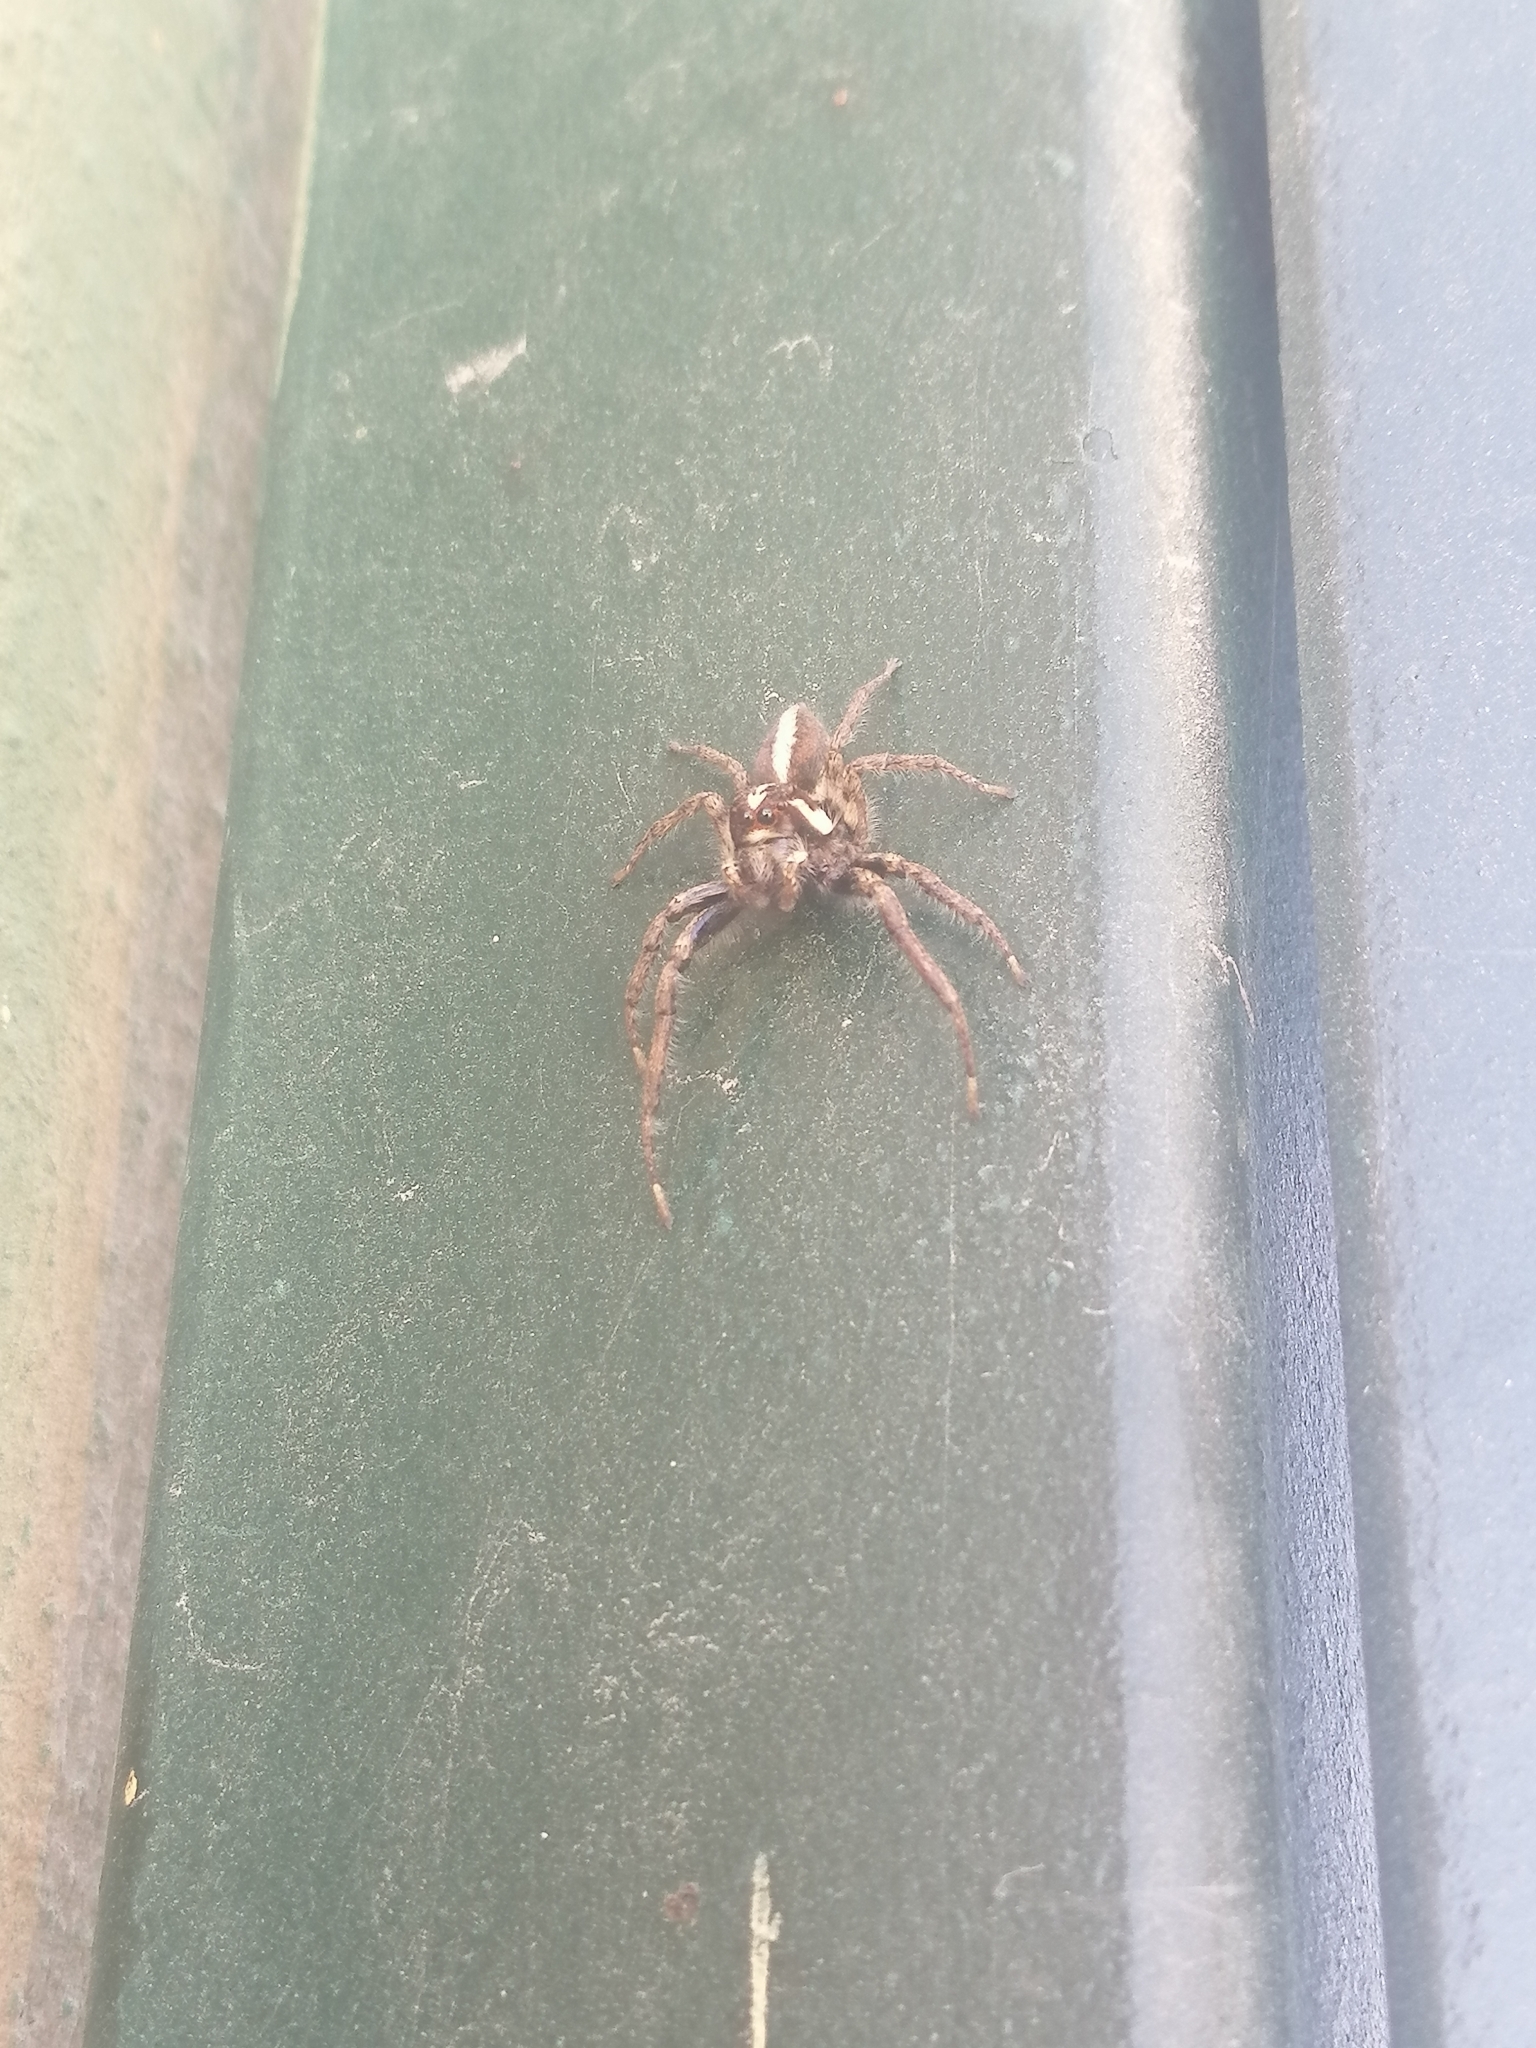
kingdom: Animalia
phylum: Arthropoda
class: Arachnida
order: Araneae
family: Salticidae
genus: Frigga
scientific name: Frigga crocuta
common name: Jumping spiders
